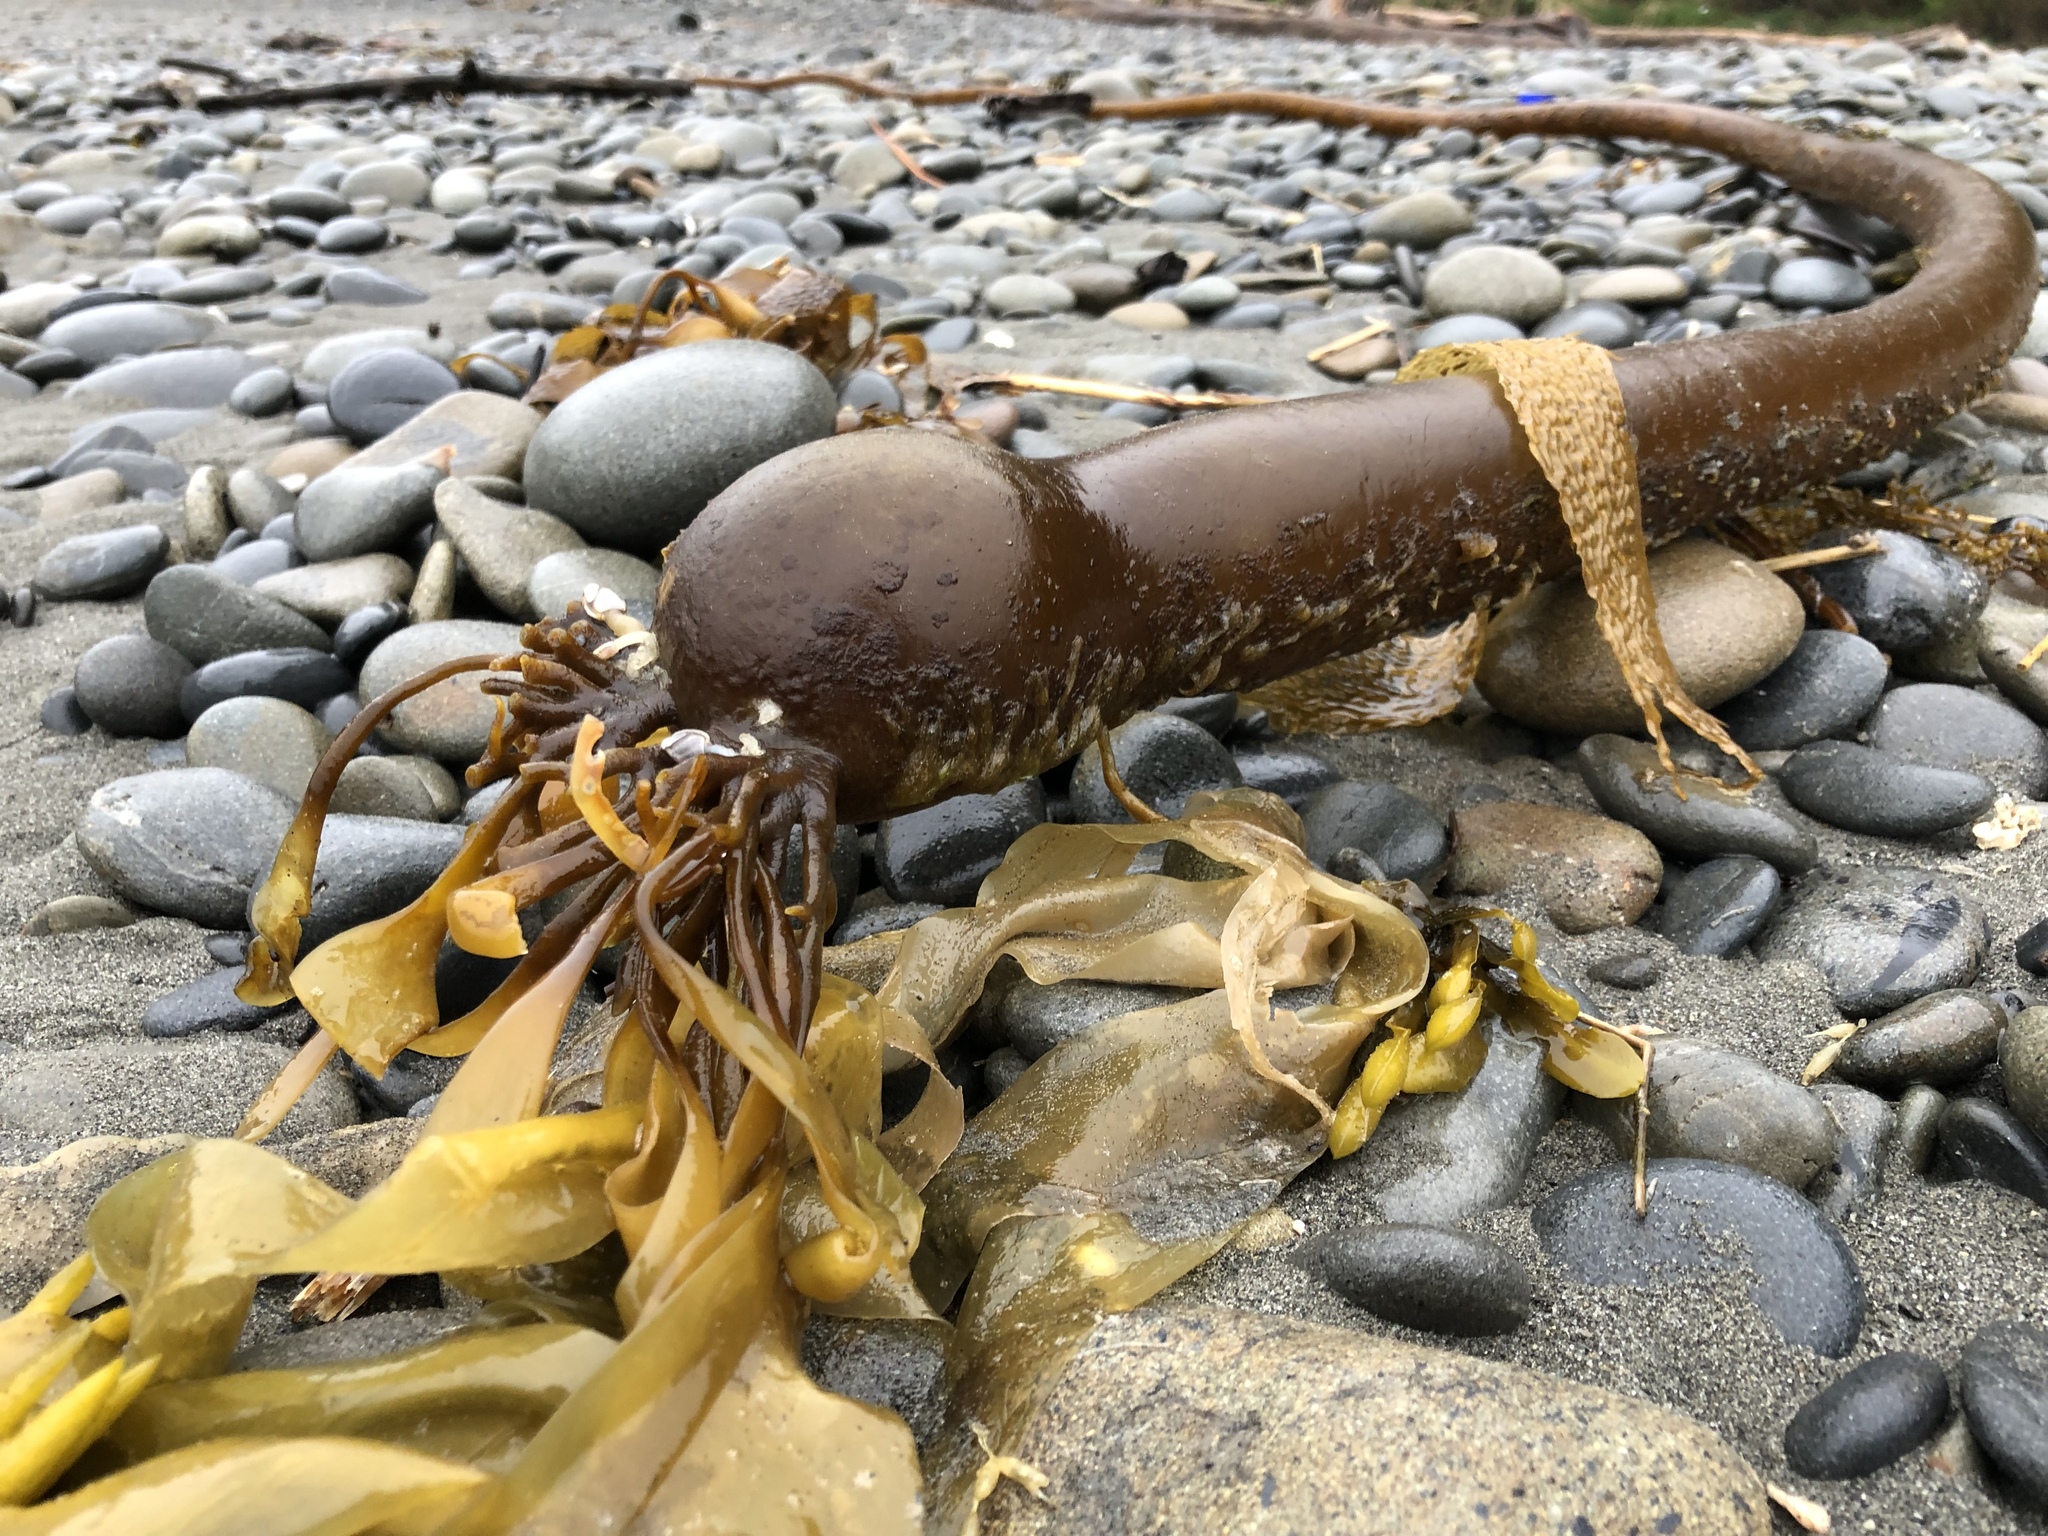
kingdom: Chromista
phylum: Ochrophyta
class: Phaeophyceae
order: Laminariales
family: Laminariaceae
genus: Nereocystis
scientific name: Nereocystis luetkeana
